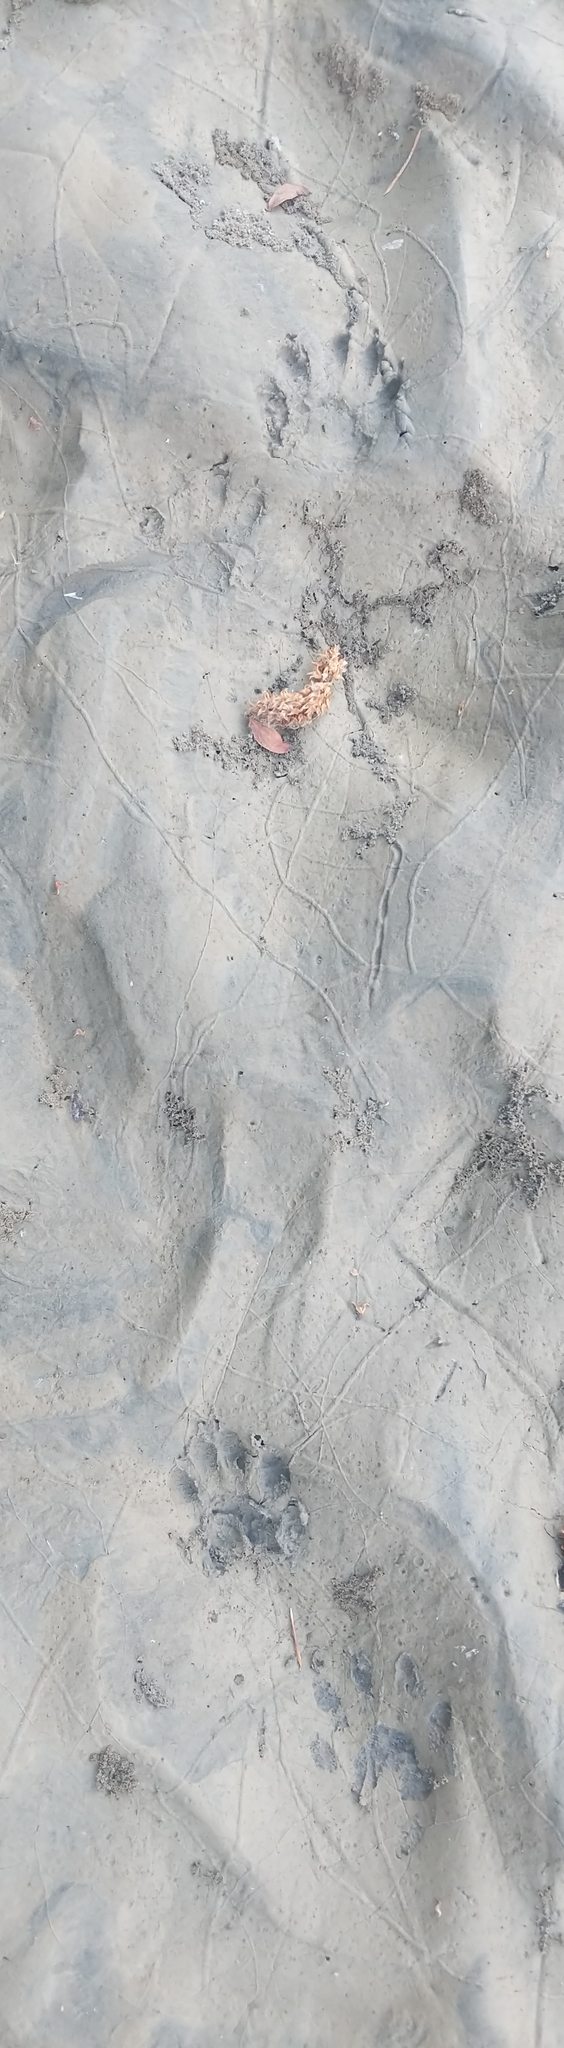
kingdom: Animalia
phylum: Chordata
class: Mammalia
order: Carnivora
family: Procyonidae
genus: Procyon
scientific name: Procyon lotor
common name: Raccoon
